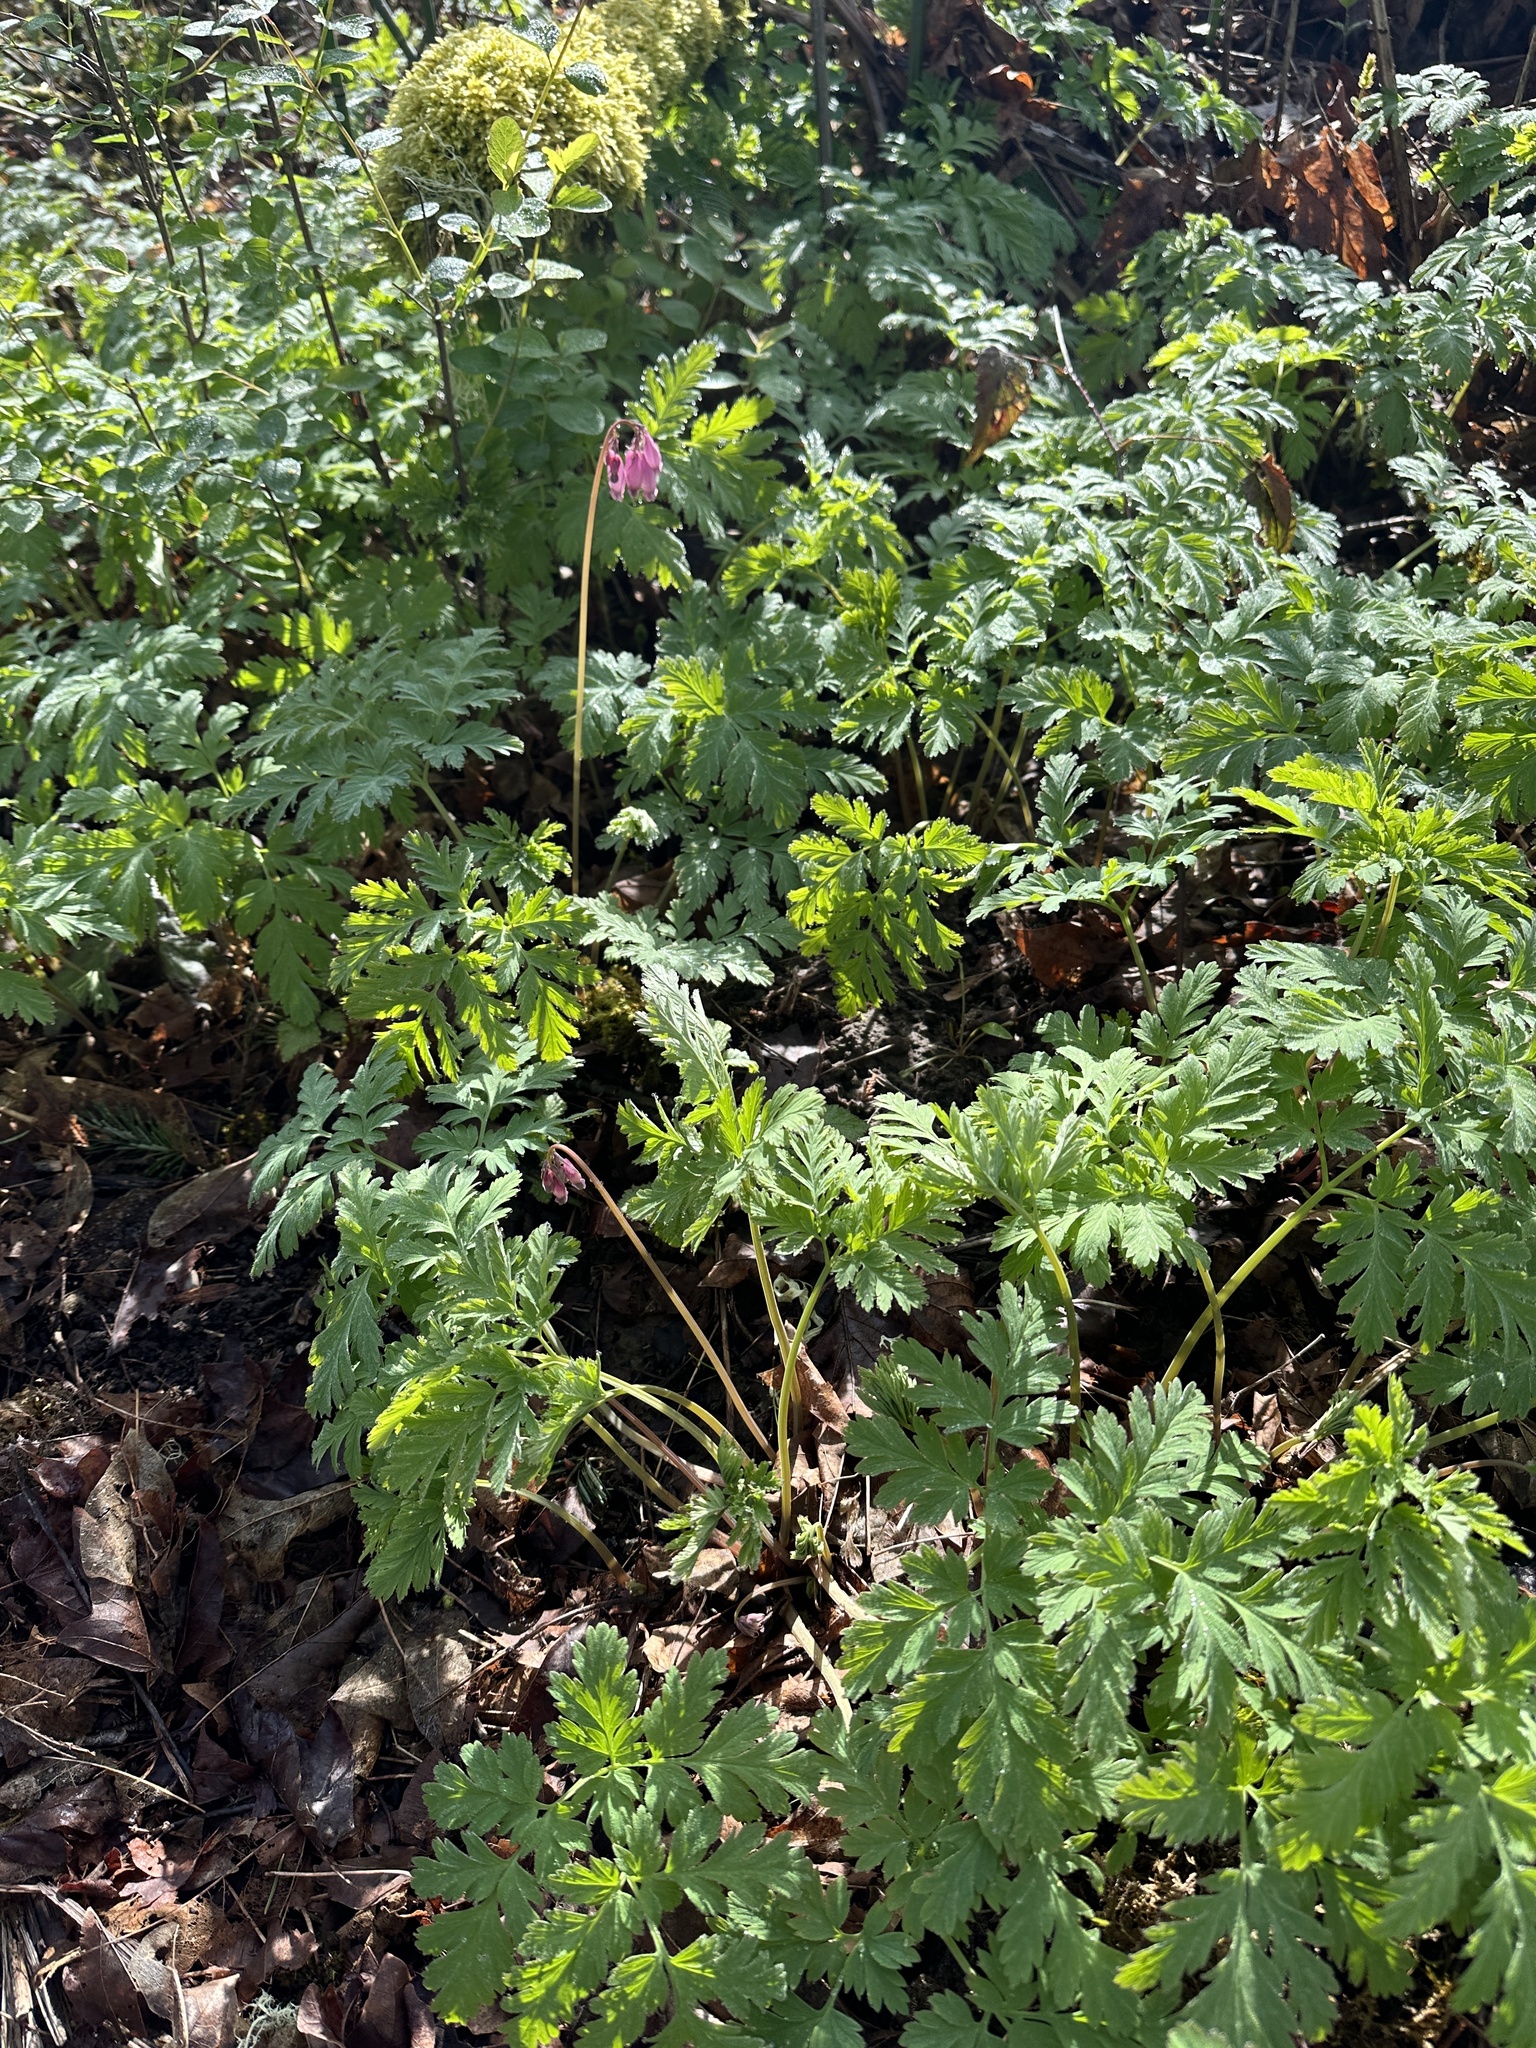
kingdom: Plantae
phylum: Tracheophyta
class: Magnoliopsida
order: Ranunculales
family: Papaveraceae
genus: Dicentra
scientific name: Dicentra formosa
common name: Bleeding-heart
